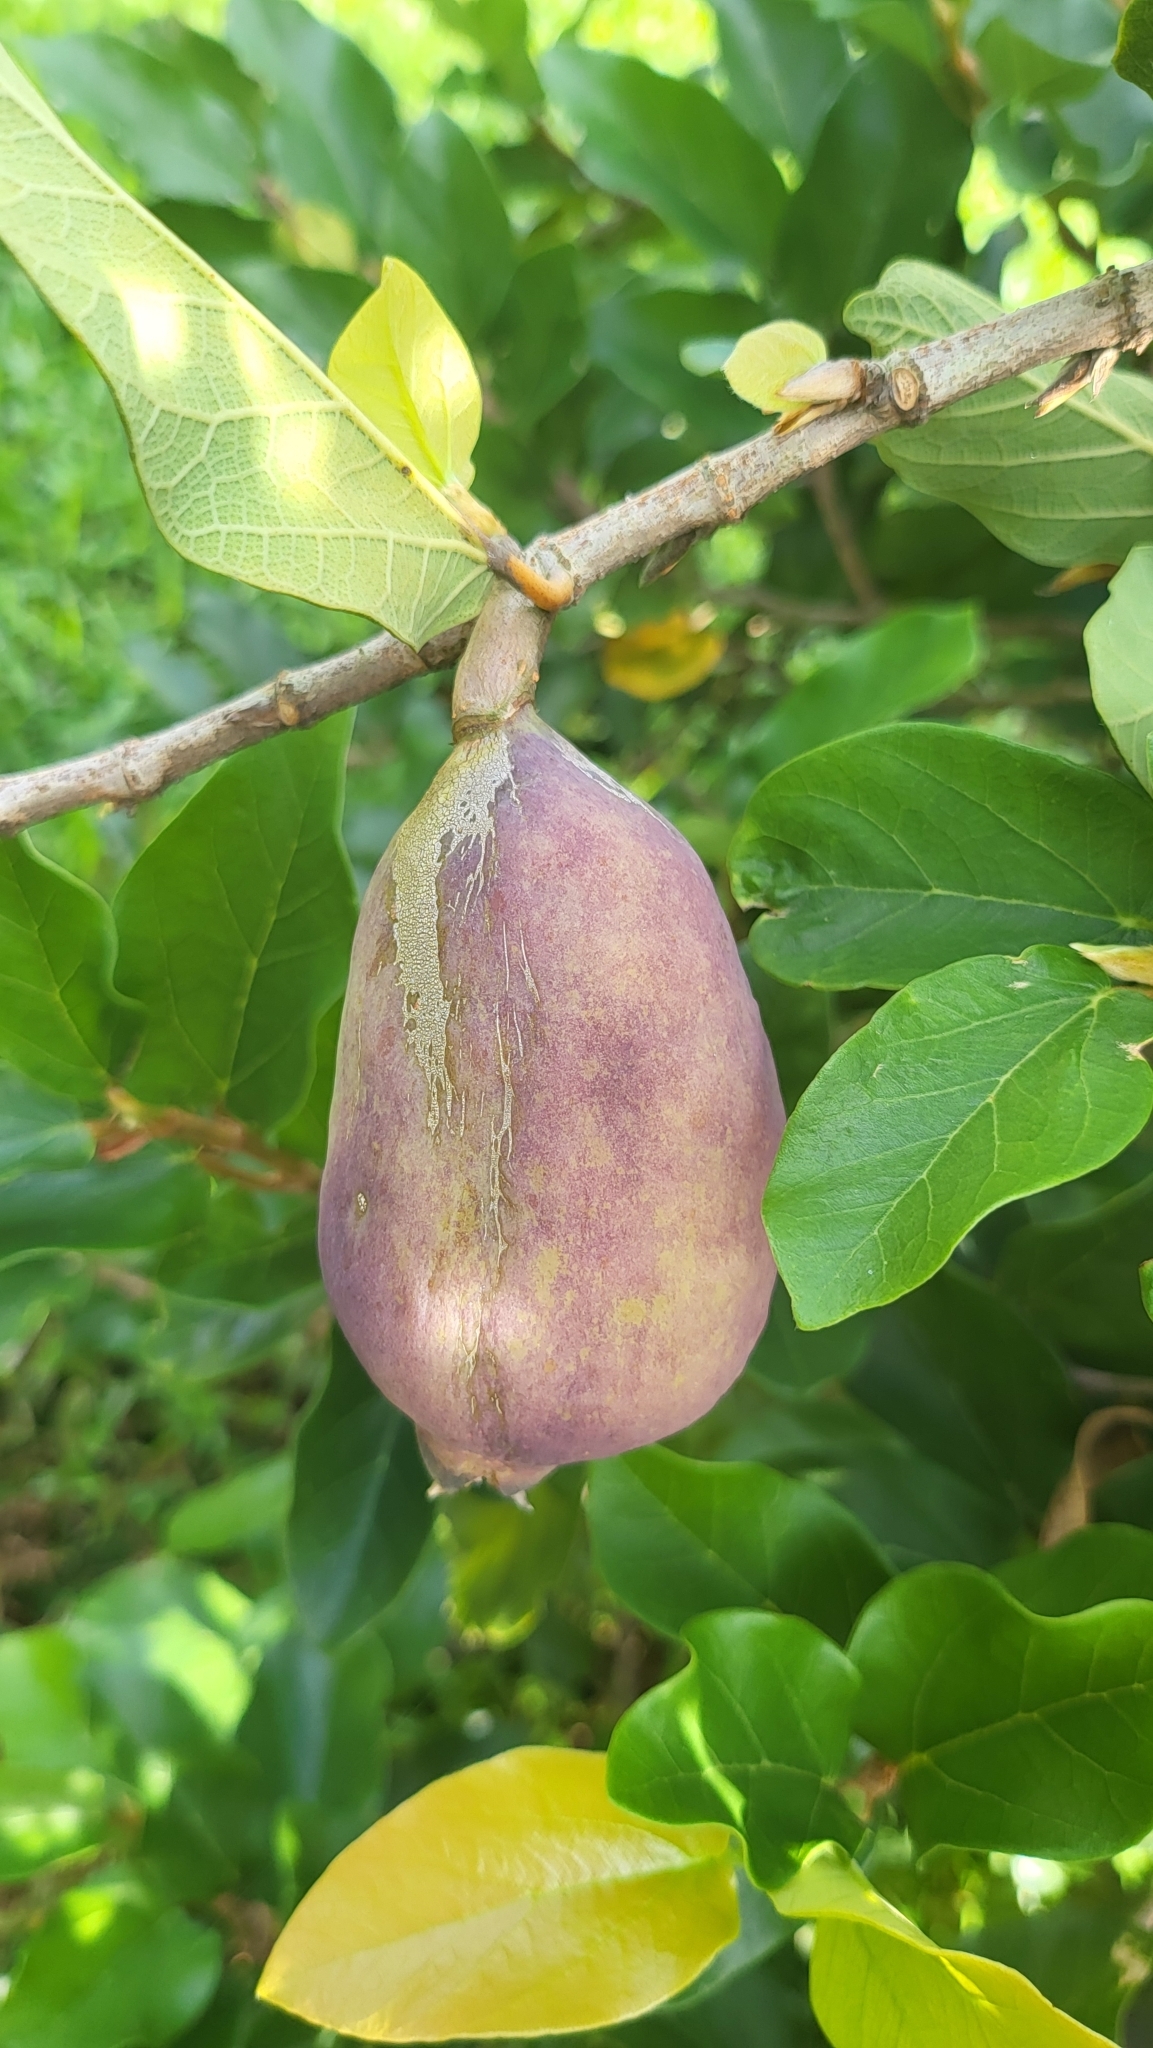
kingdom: Plantae
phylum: Tracheophyta
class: Magnoliopsida
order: Rosales
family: Moraceae
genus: Ficus
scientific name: Ficus pumila
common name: Climbingfig
